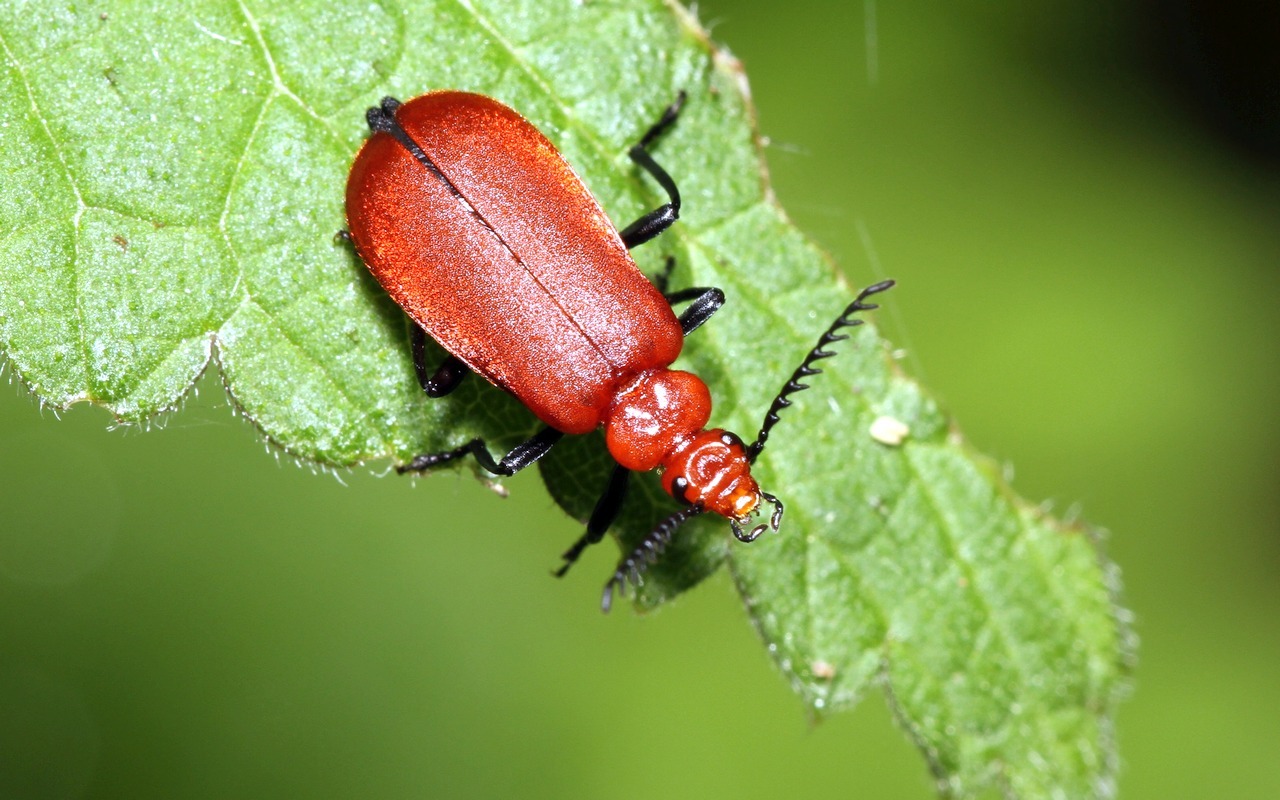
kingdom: Animalia
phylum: Arthropoda
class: Insecta
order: Coleoptera
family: Pyrochroidae
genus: Pyrochroa
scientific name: Pyrochroa serraticornis
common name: Red-headed cardinal beetle
